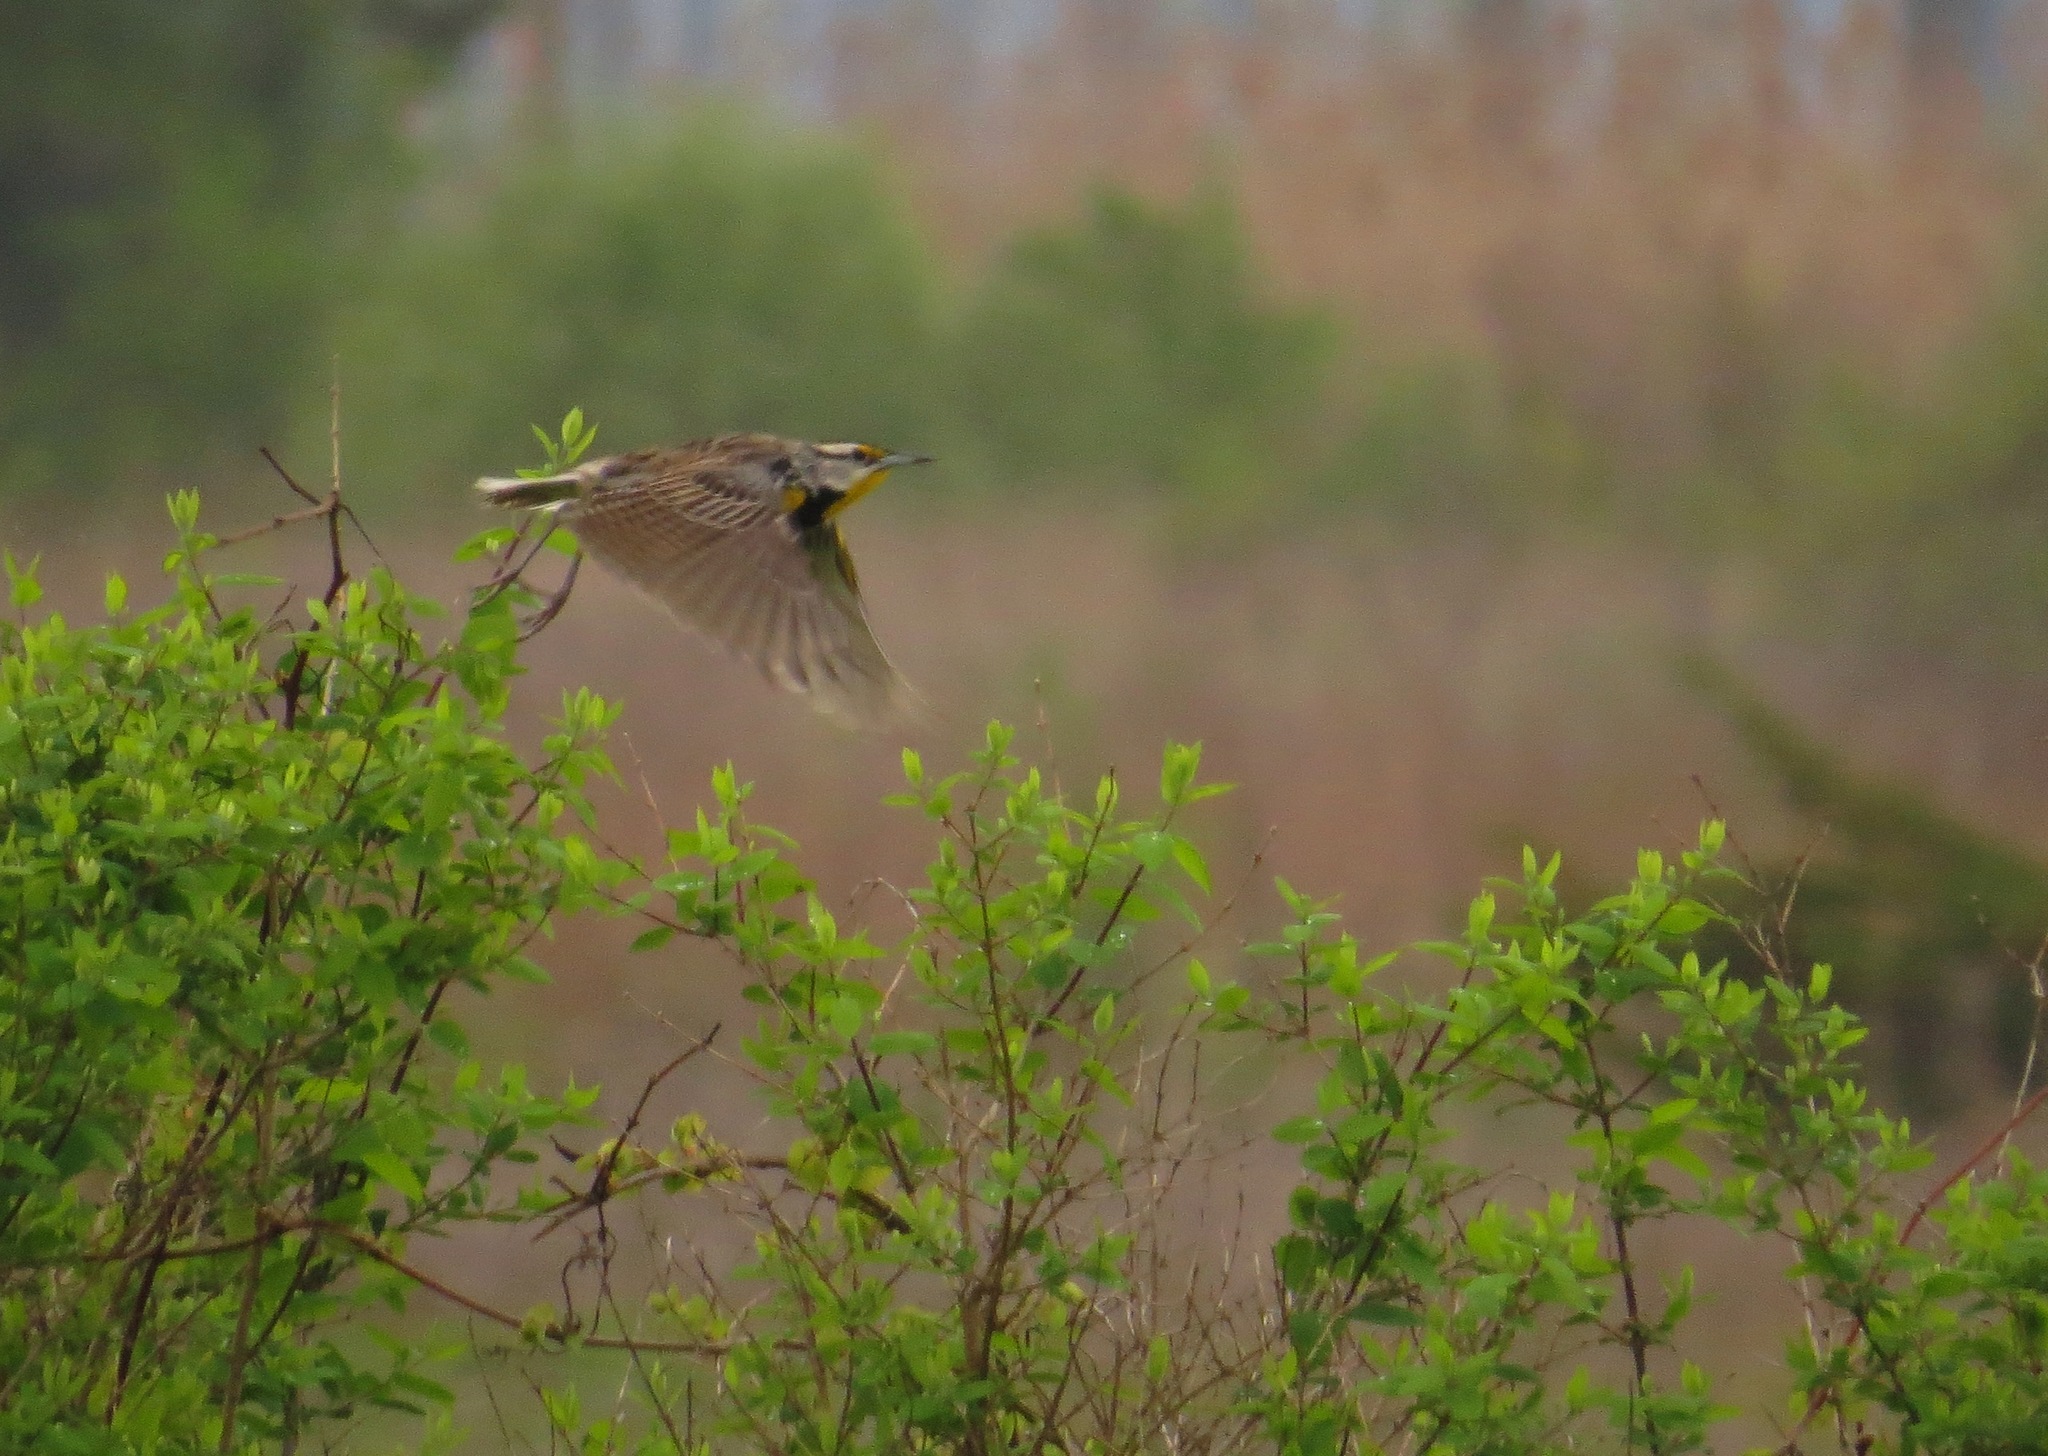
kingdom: Animalia
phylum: Chordata
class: Aves
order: Passeriformes
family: Icteridae
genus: Sturnella
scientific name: Sturnella magna
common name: Eastern meadowlark
